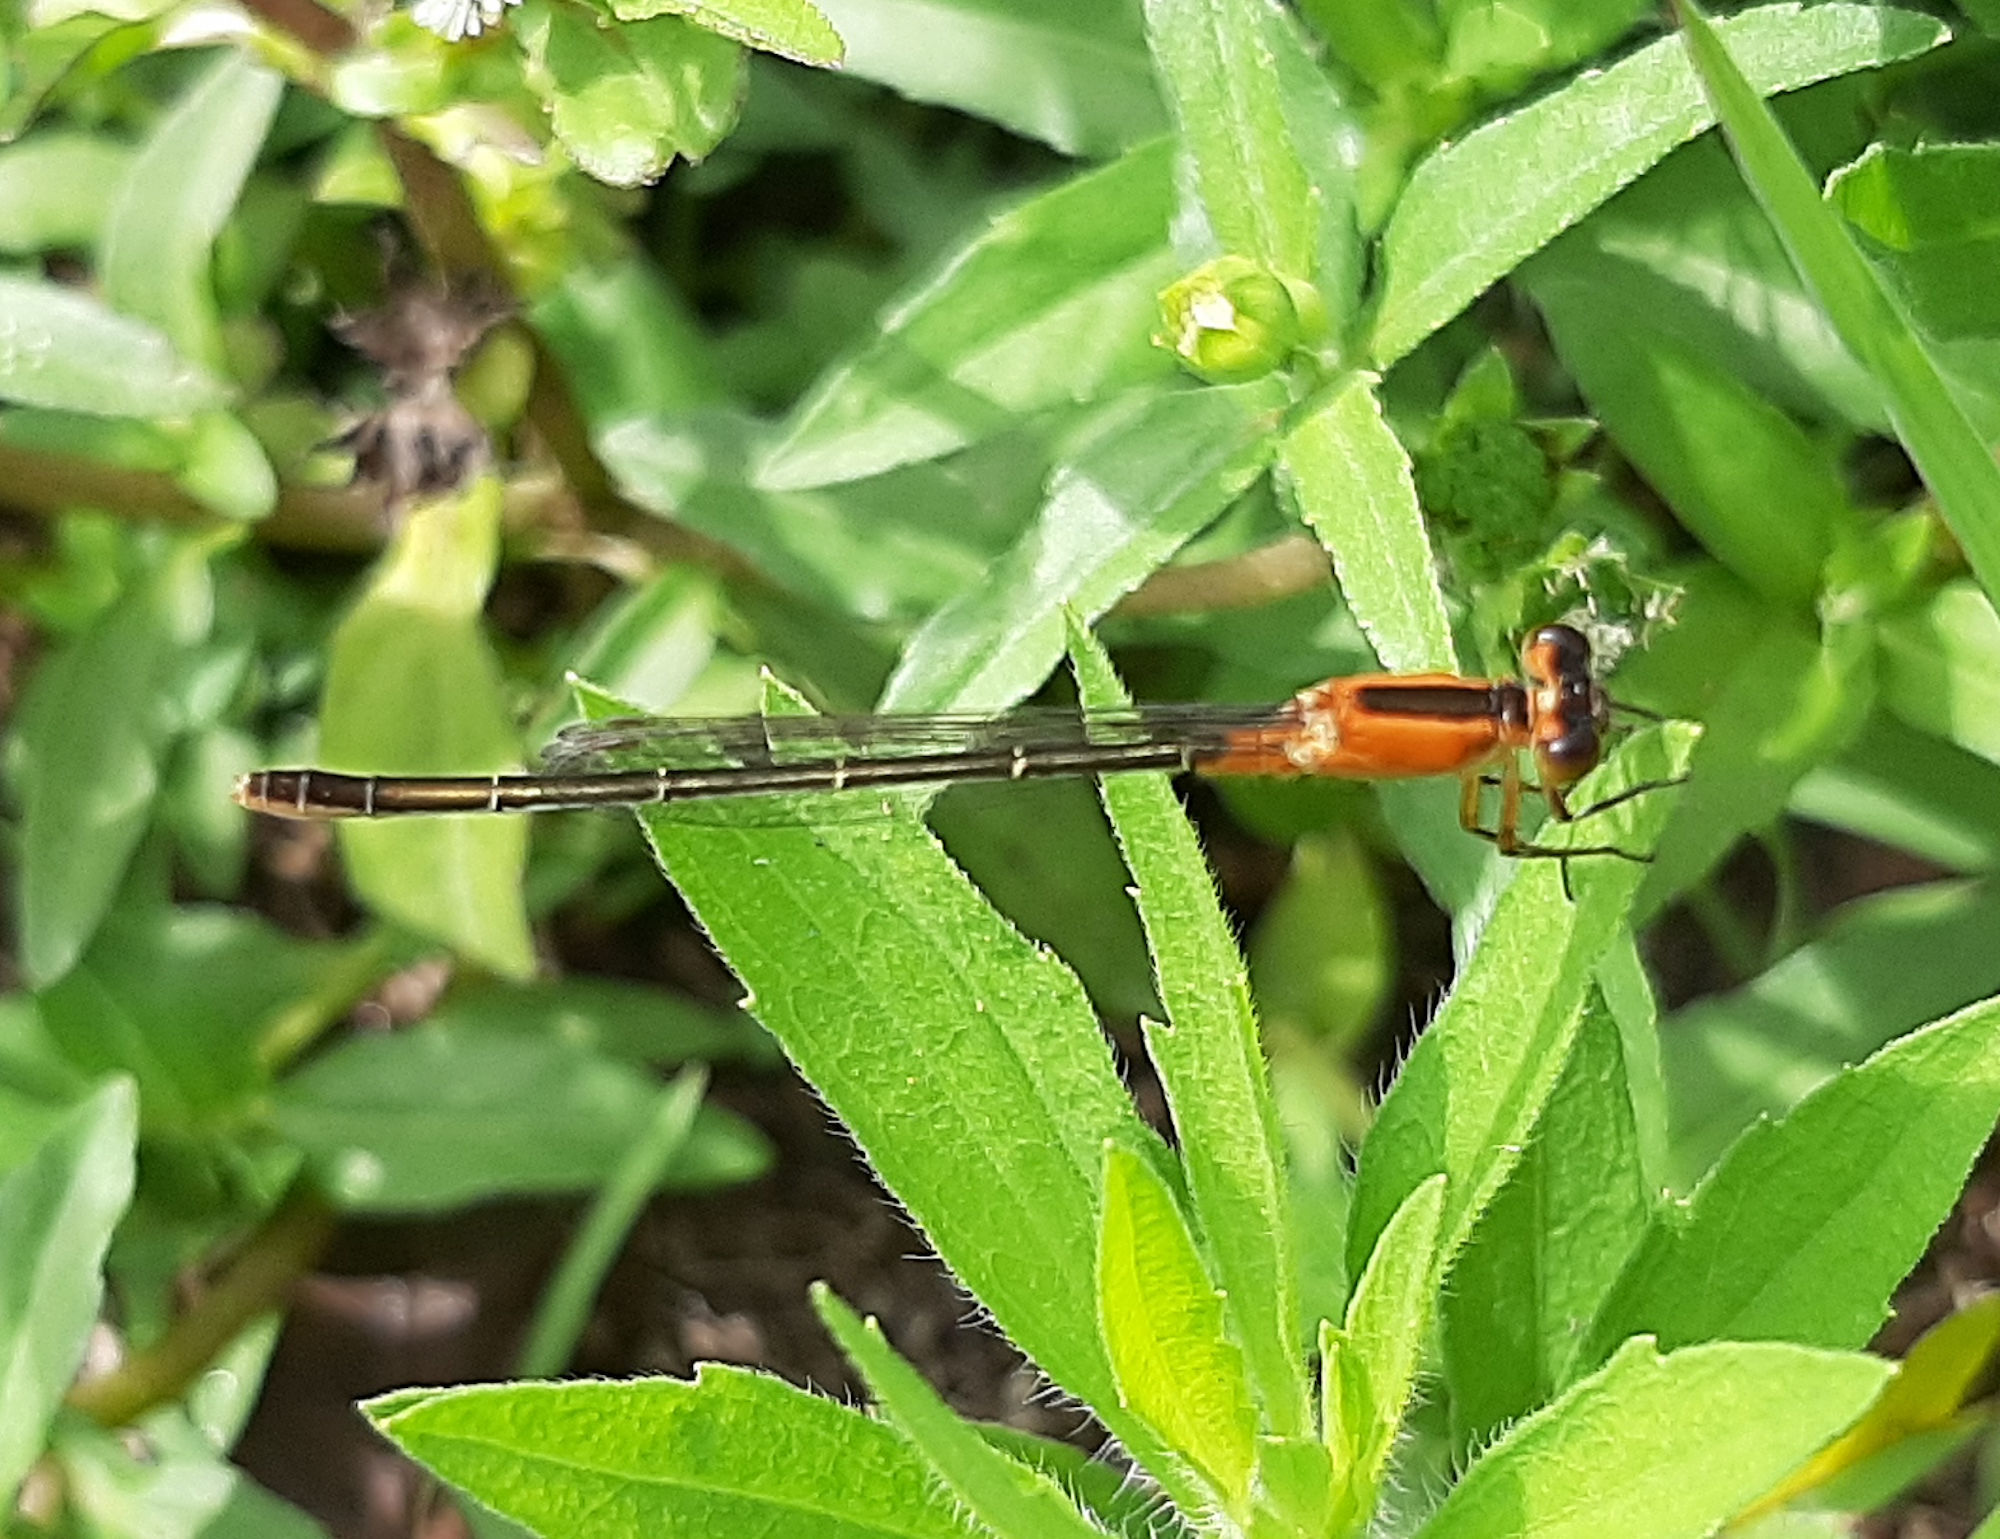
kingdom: Animalia
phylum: Arthropoda
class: Insecta
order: Odonata
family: Coenagrionidae
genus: Ischnura
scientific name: Ischnura ramburii
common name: Rambur's forktail
